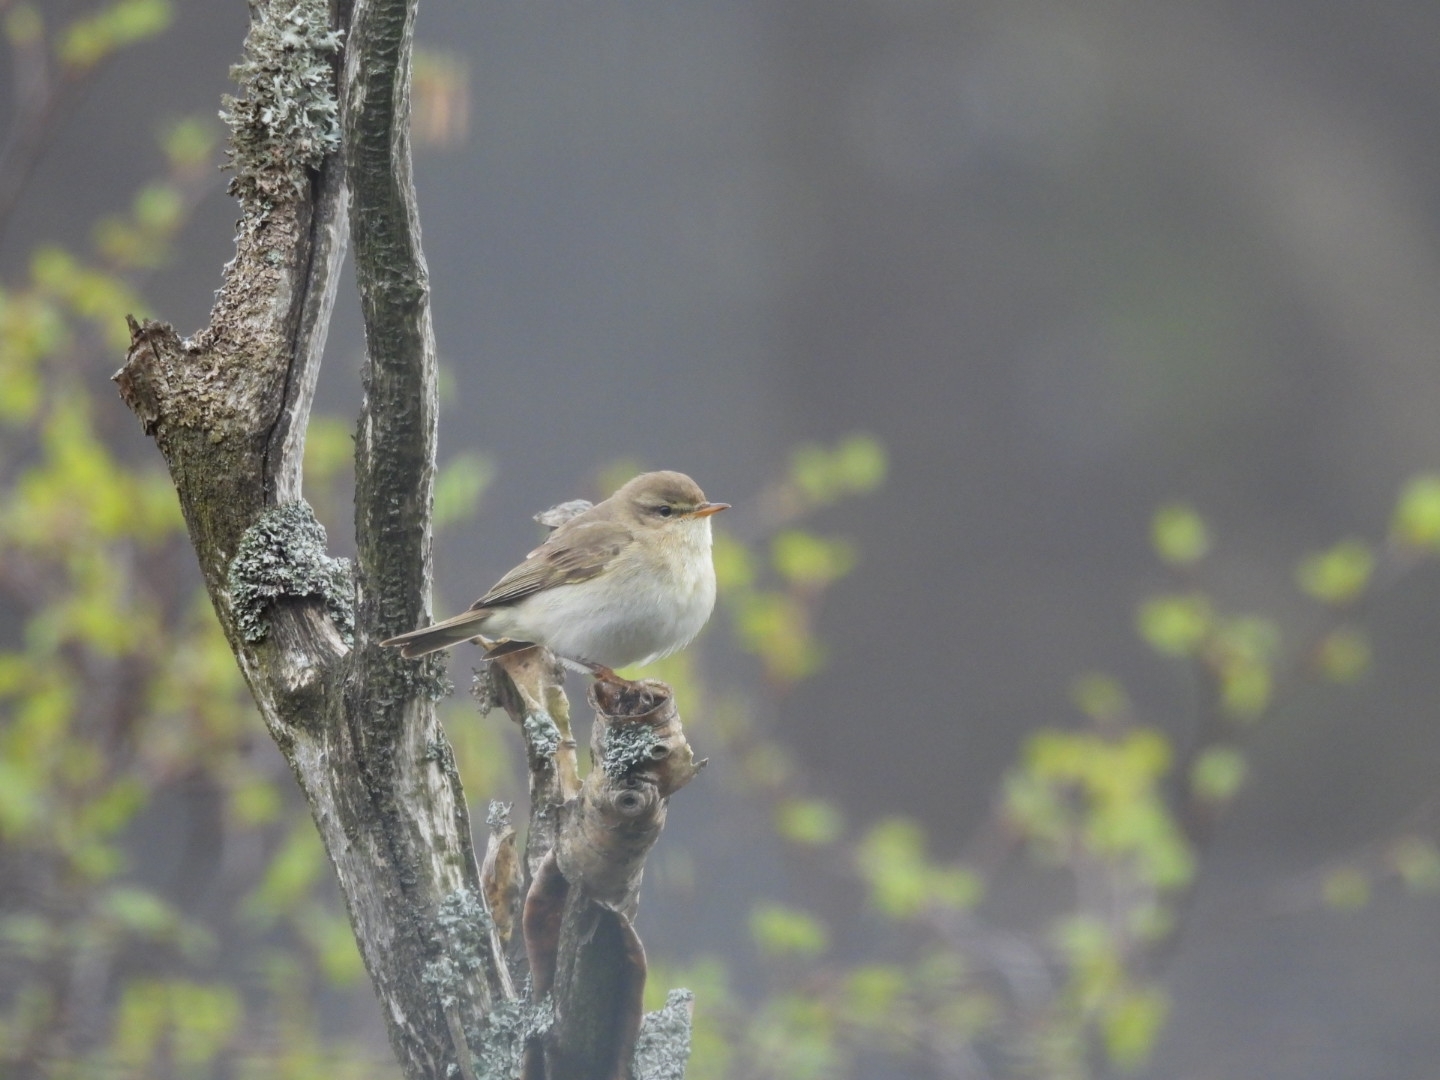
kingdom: Animalia
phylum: Chordata
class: Aves
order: Passeriformes
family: Phylloscopidae
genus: Phylloscopus
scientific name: Phylloscopus trochilus
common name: Willow warbler
